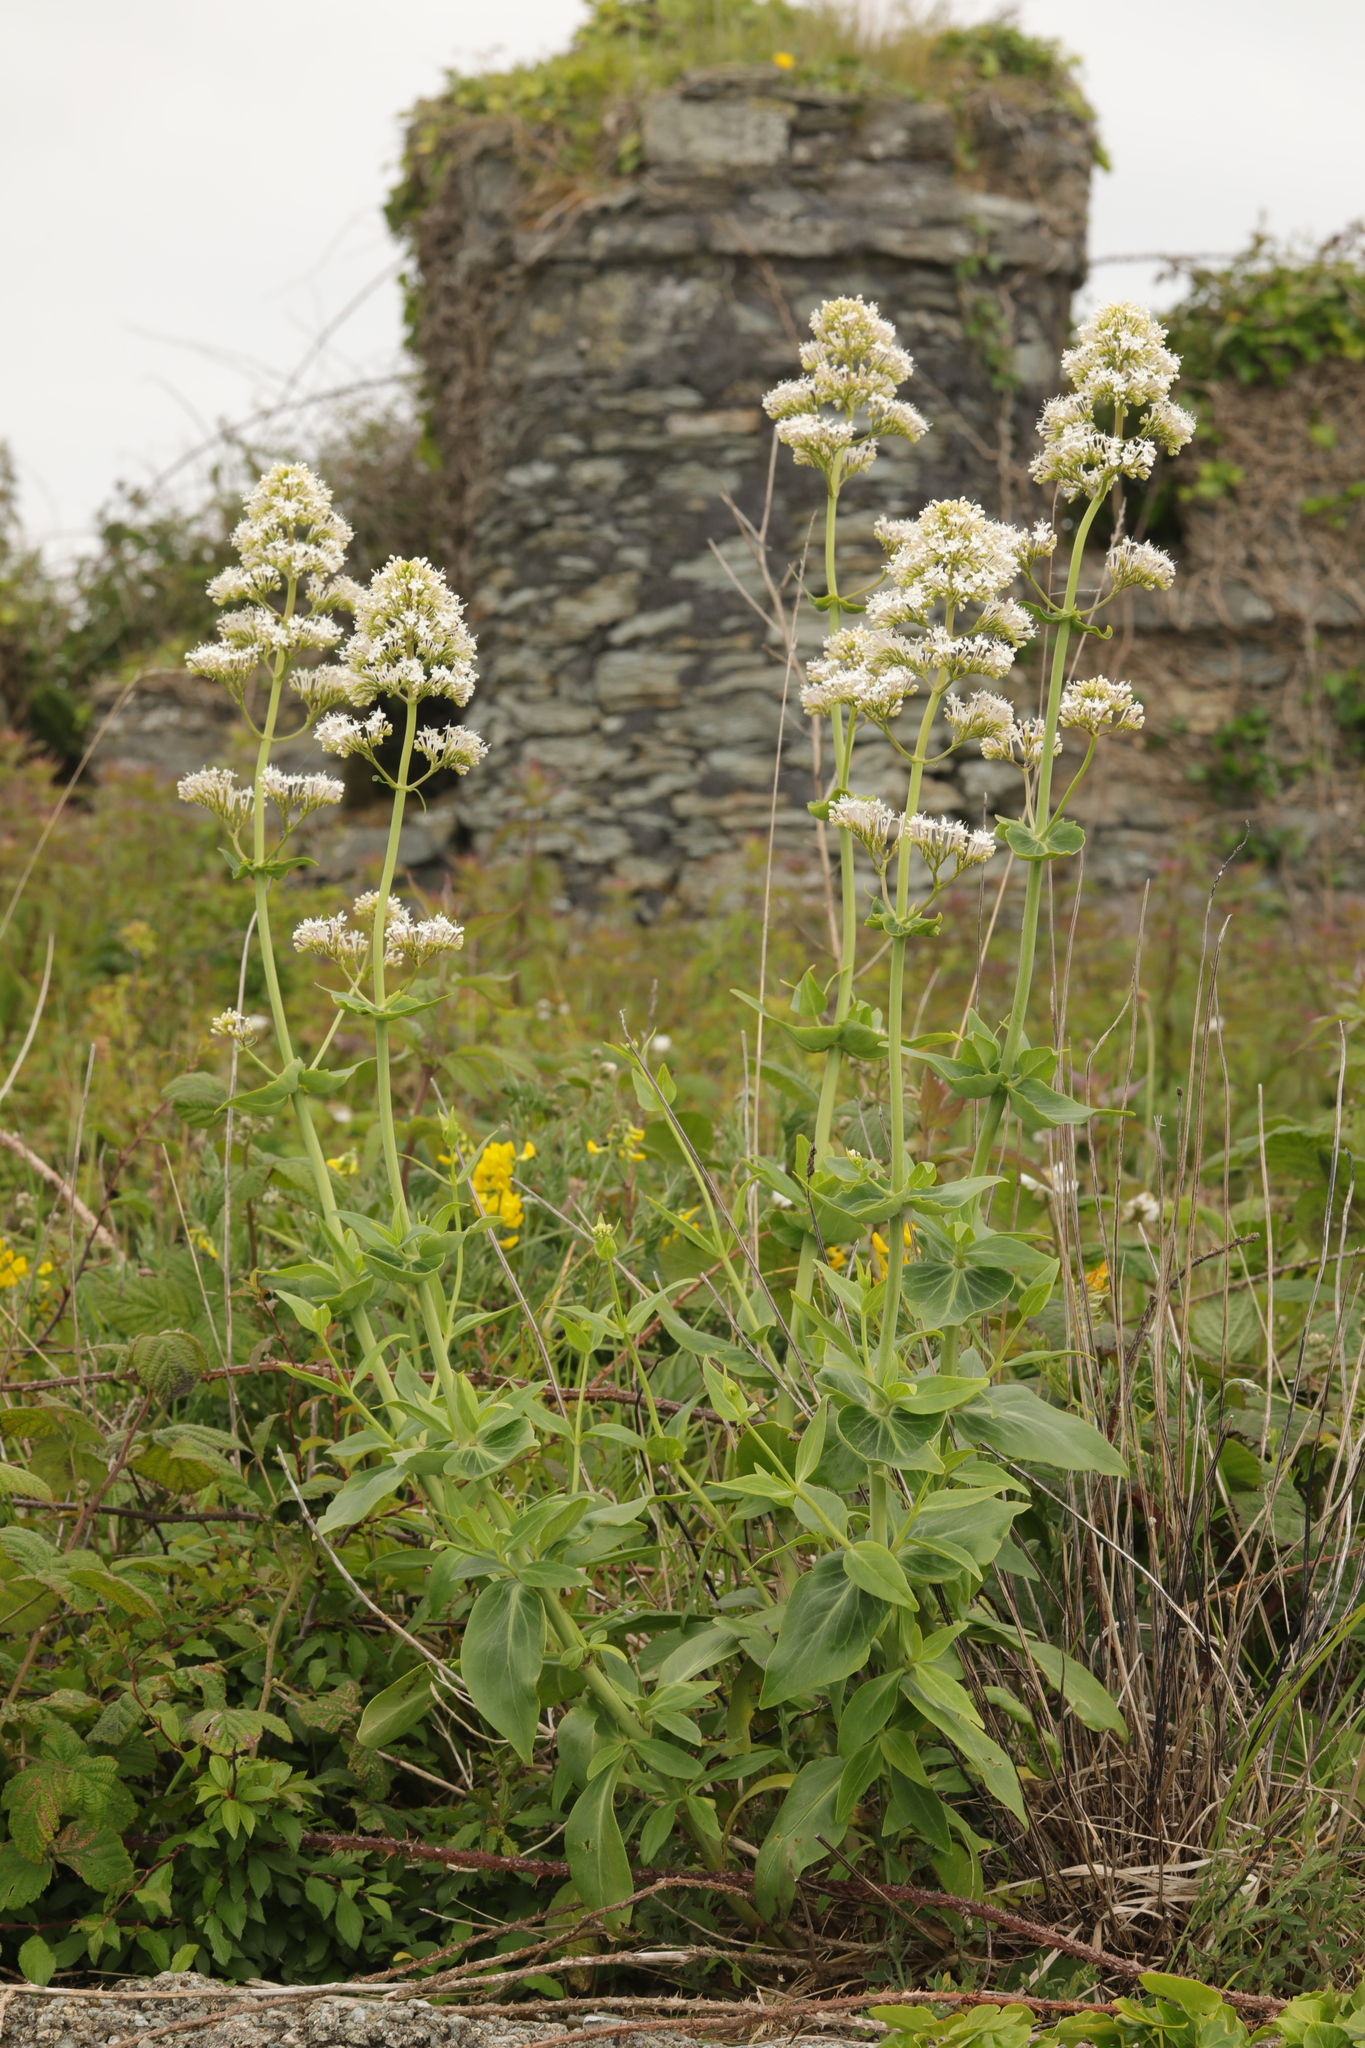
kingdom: Plantae
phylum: Tracheophyta
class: Magnoliopsida
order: Dipsacales
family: Caprifoliaceae
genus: Centranthus
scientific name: Centranthus ruber
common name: Red valerian
